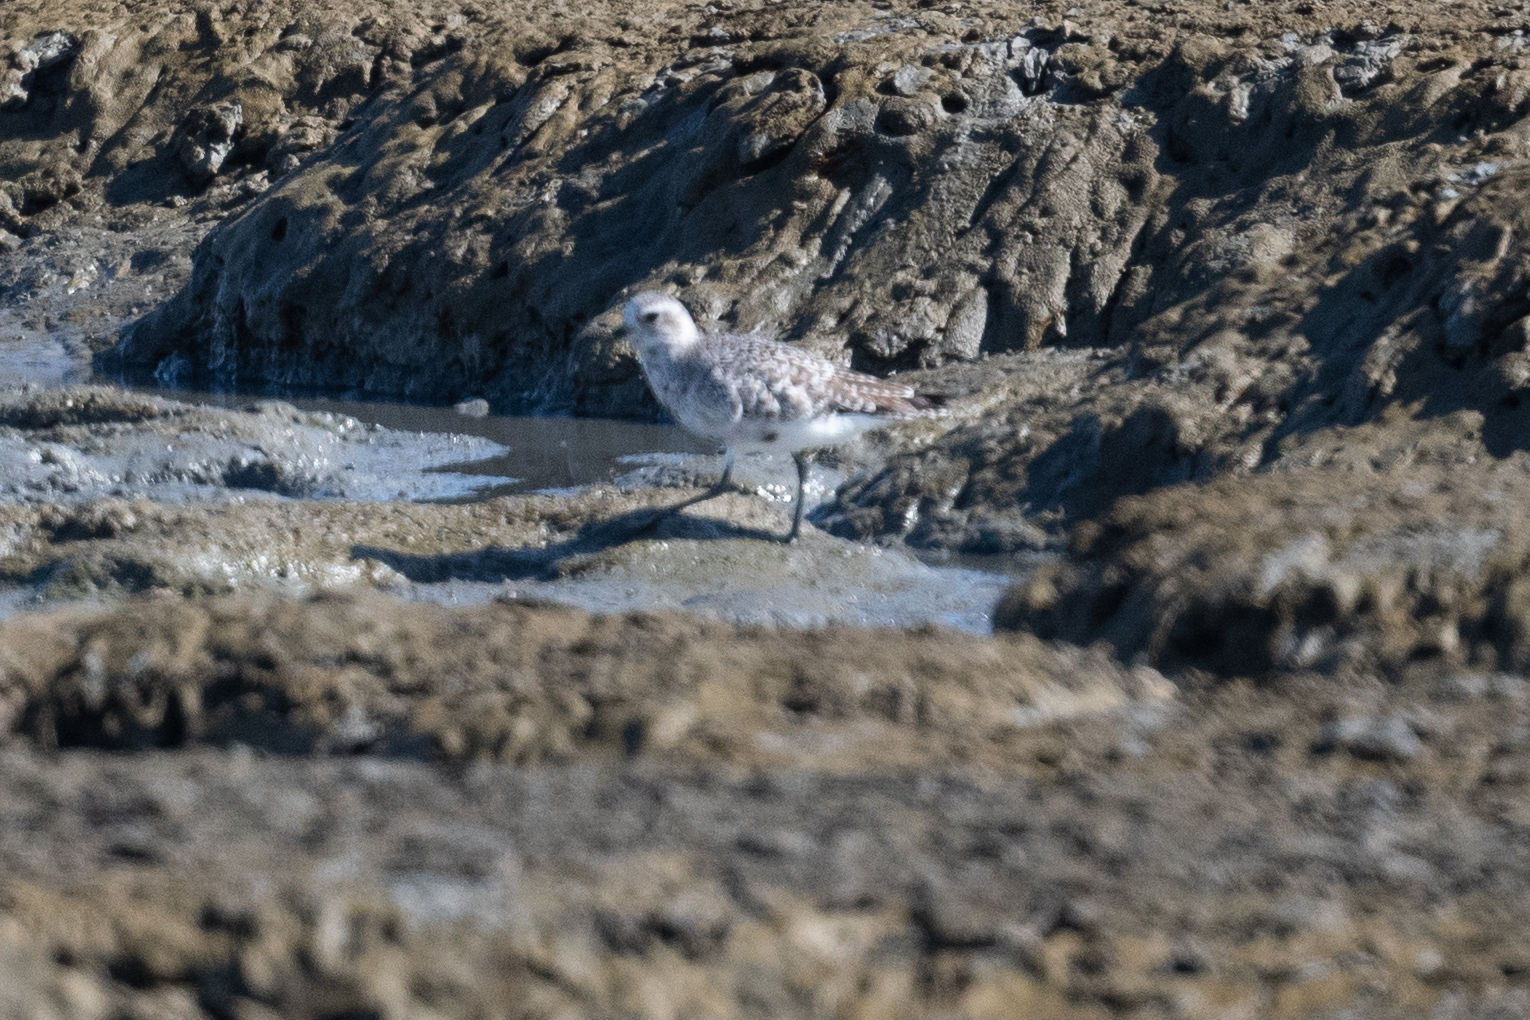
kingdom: Animalia
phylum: Chordata
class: Aves
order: Charadriiformes
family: Charadriidae
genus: Pluvialis
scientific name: Pluvialis squatarola
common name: Grey plover
